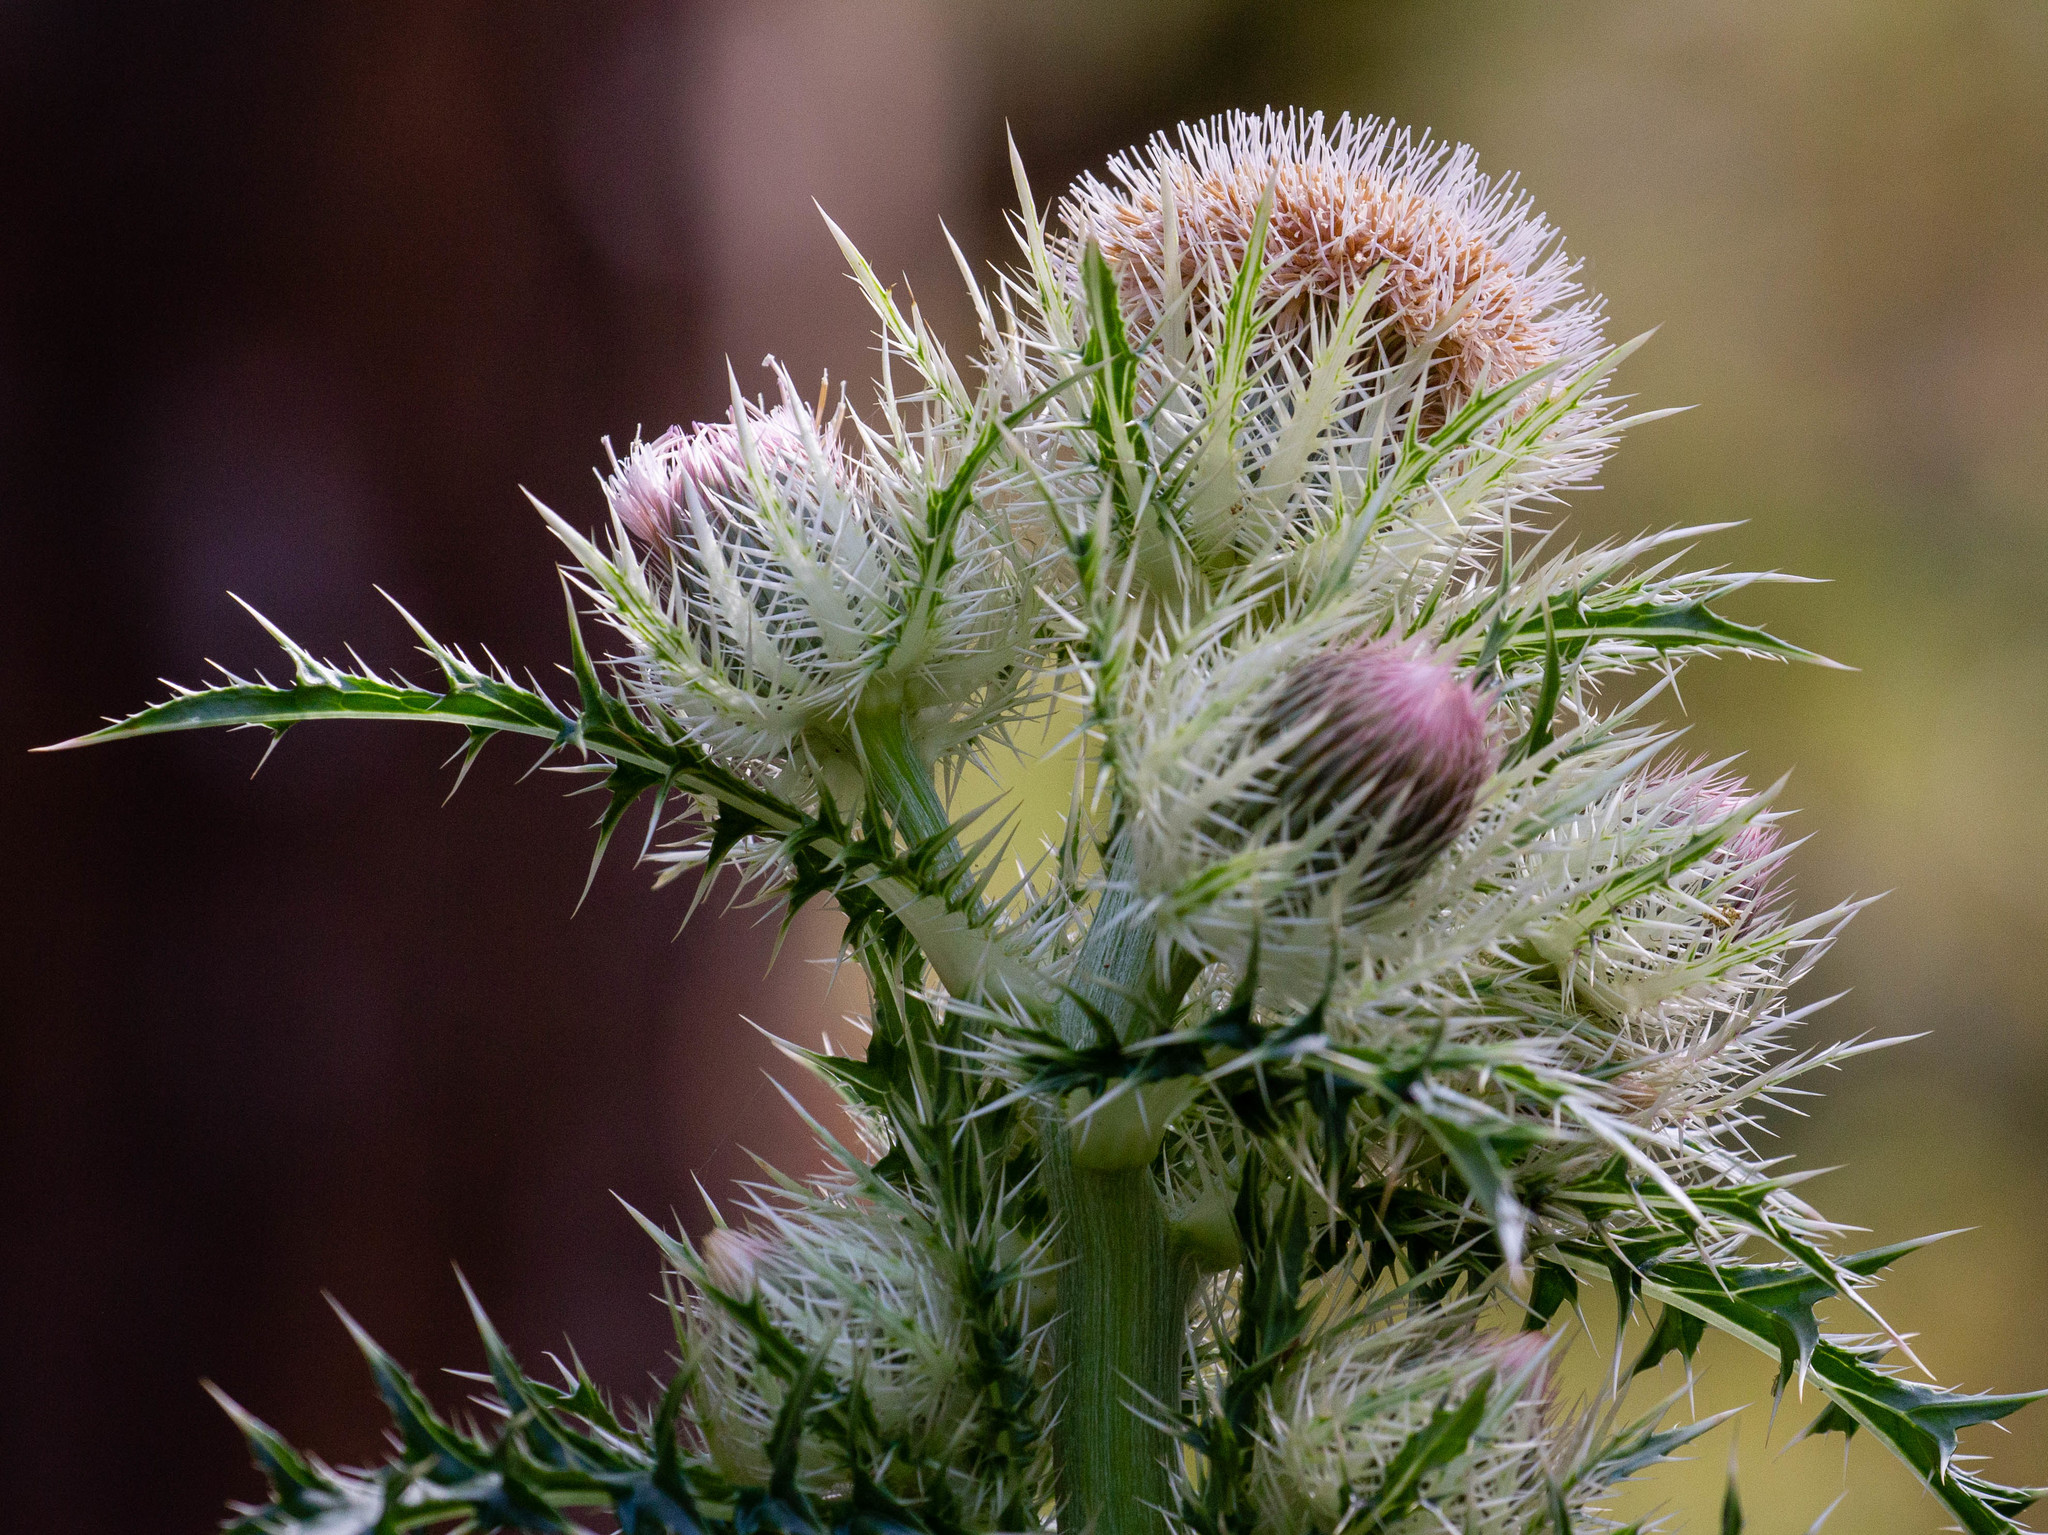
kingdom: Plantae
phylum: Tracheophyta
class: Magnoliopsida
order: Asterales
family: Asteraceae
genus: Cirsium
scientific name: Cirsium horridulum
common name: Bristly thistle
